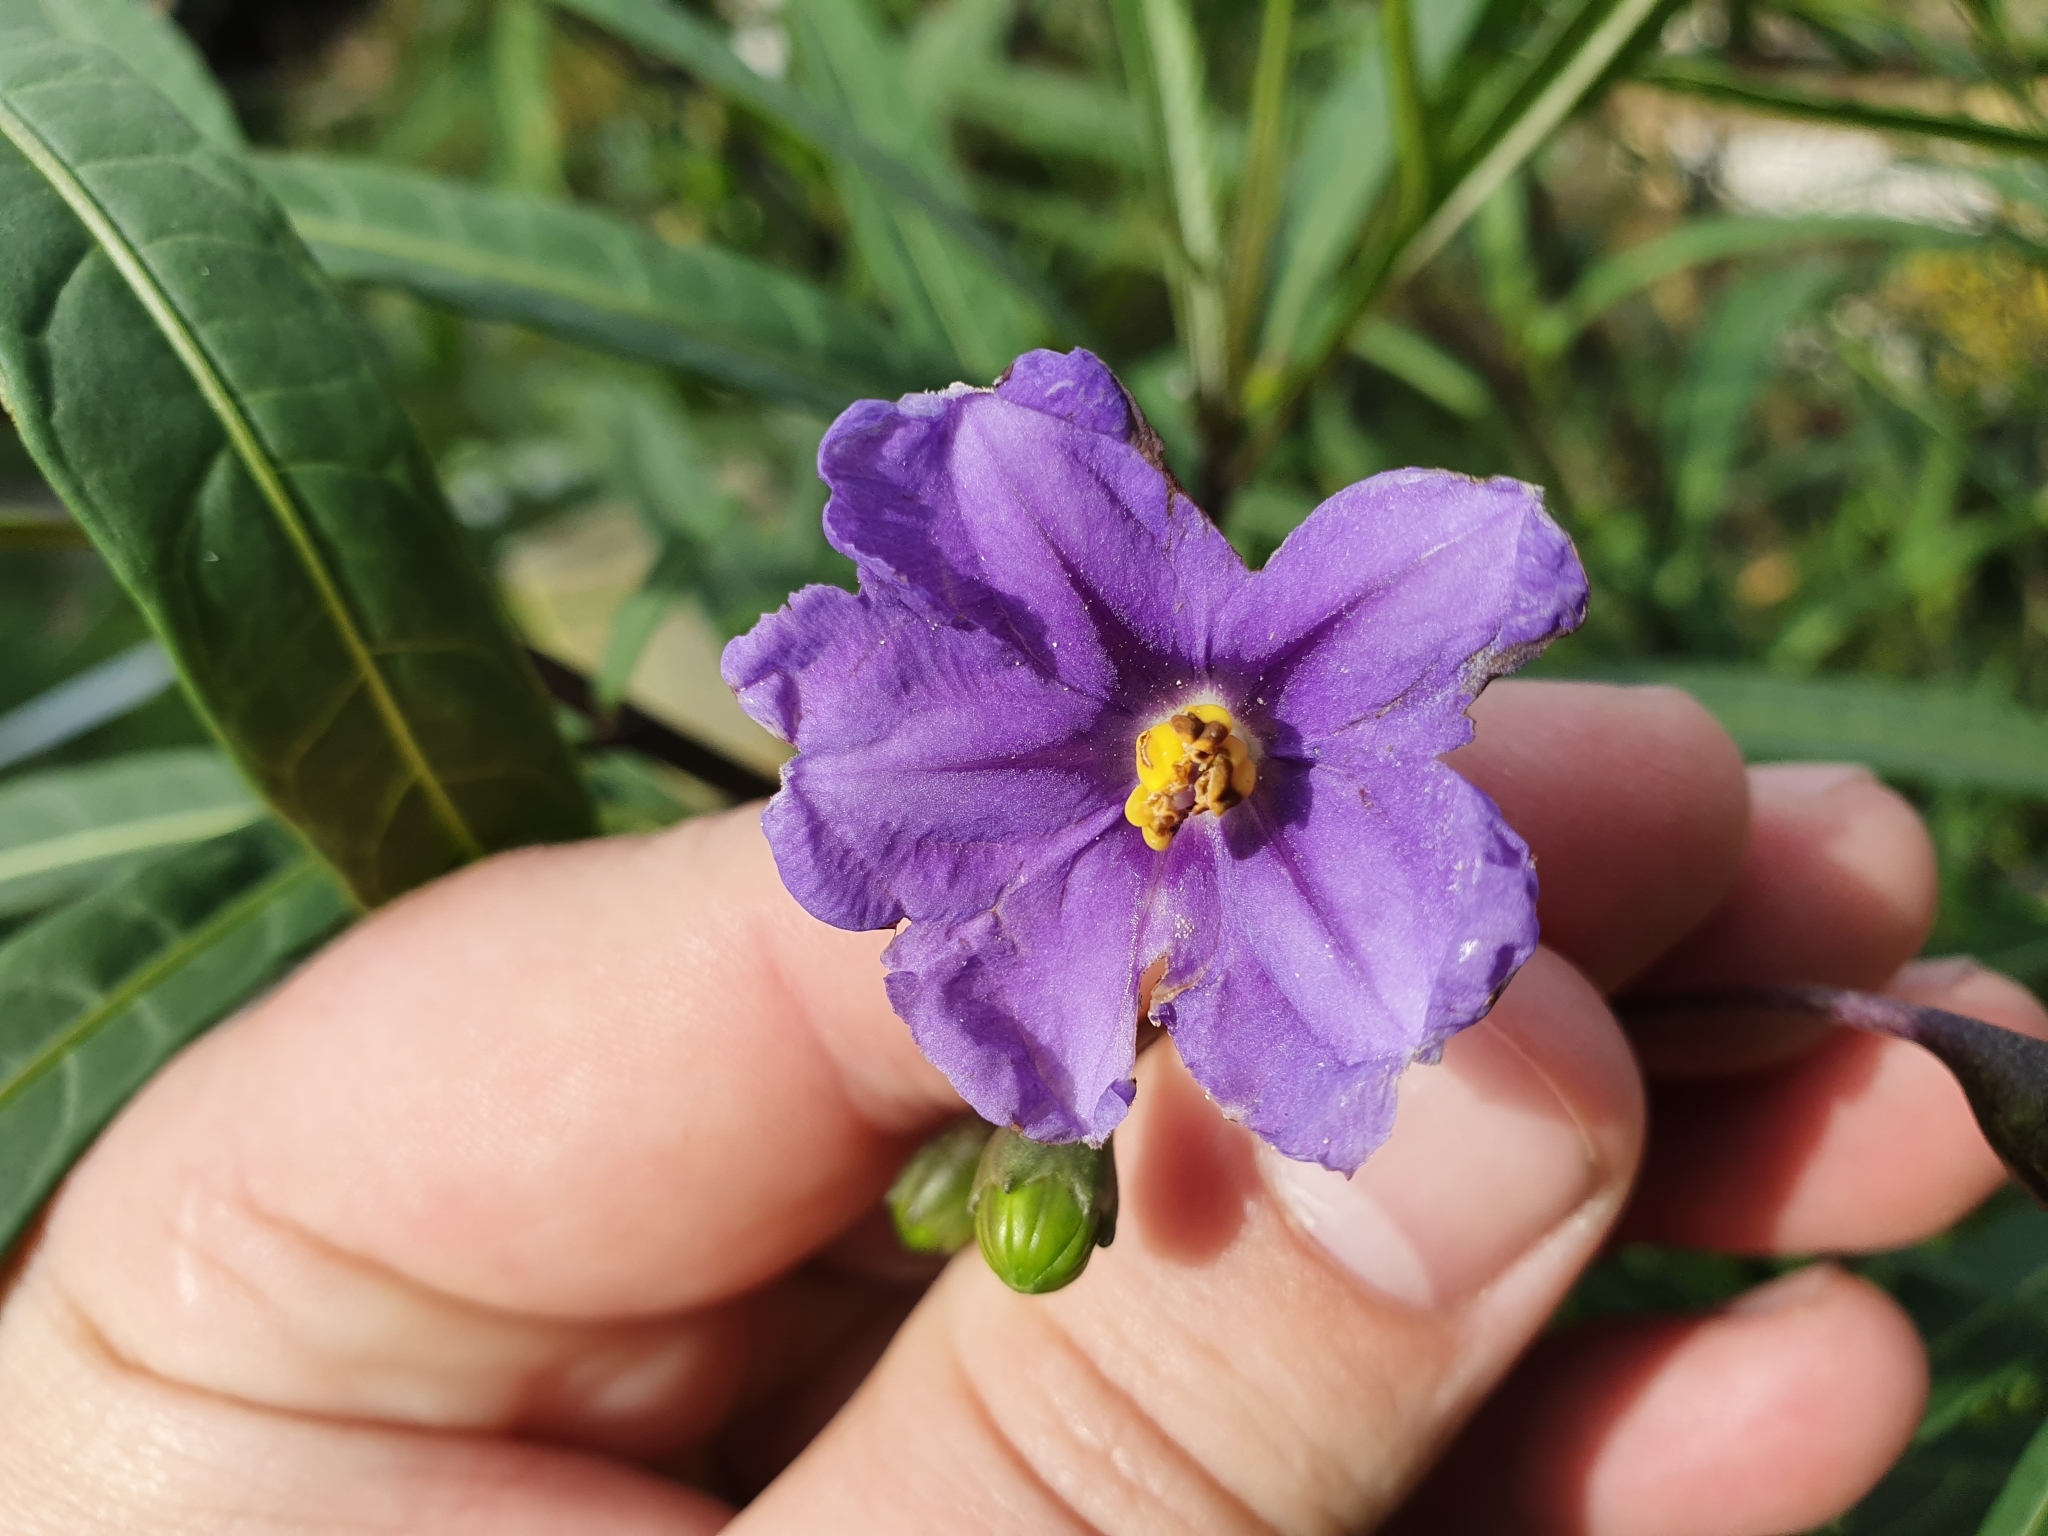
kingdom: Plantae
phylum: Tracheophyta
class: Magnoliopsida
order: Solanales
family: Solanaceae
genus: Solanum
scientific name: Solanum laciniatum
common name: Kangaroo-apple
